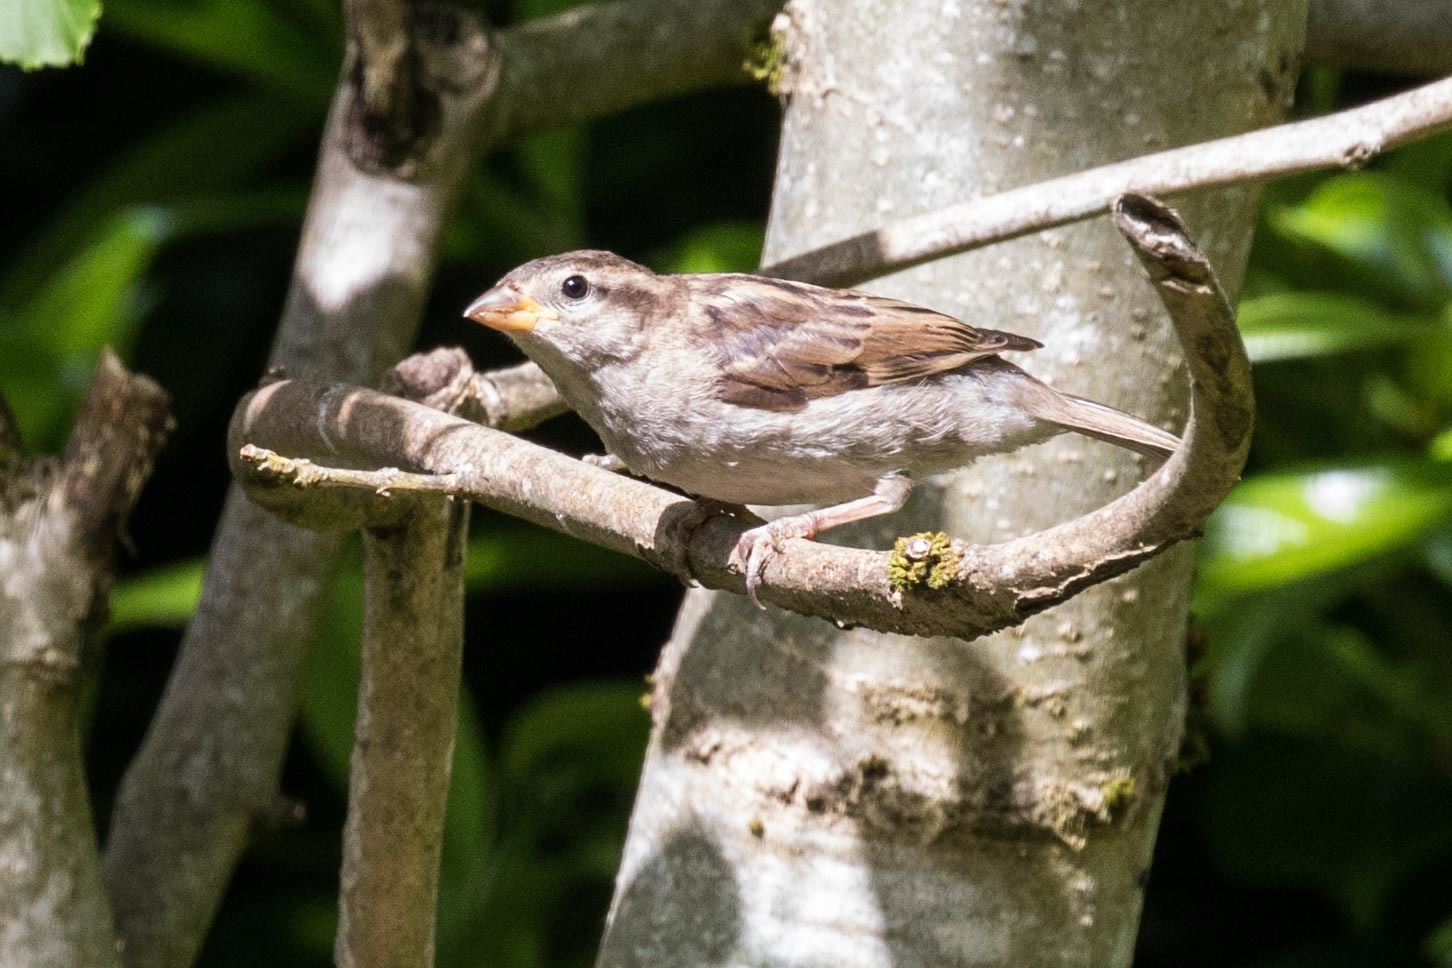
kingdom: Animalia
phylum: Chordata
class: Aves
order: Passeriformes
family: Passeridae
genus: Passer
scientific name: Passer domesticus
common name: House sparrow
